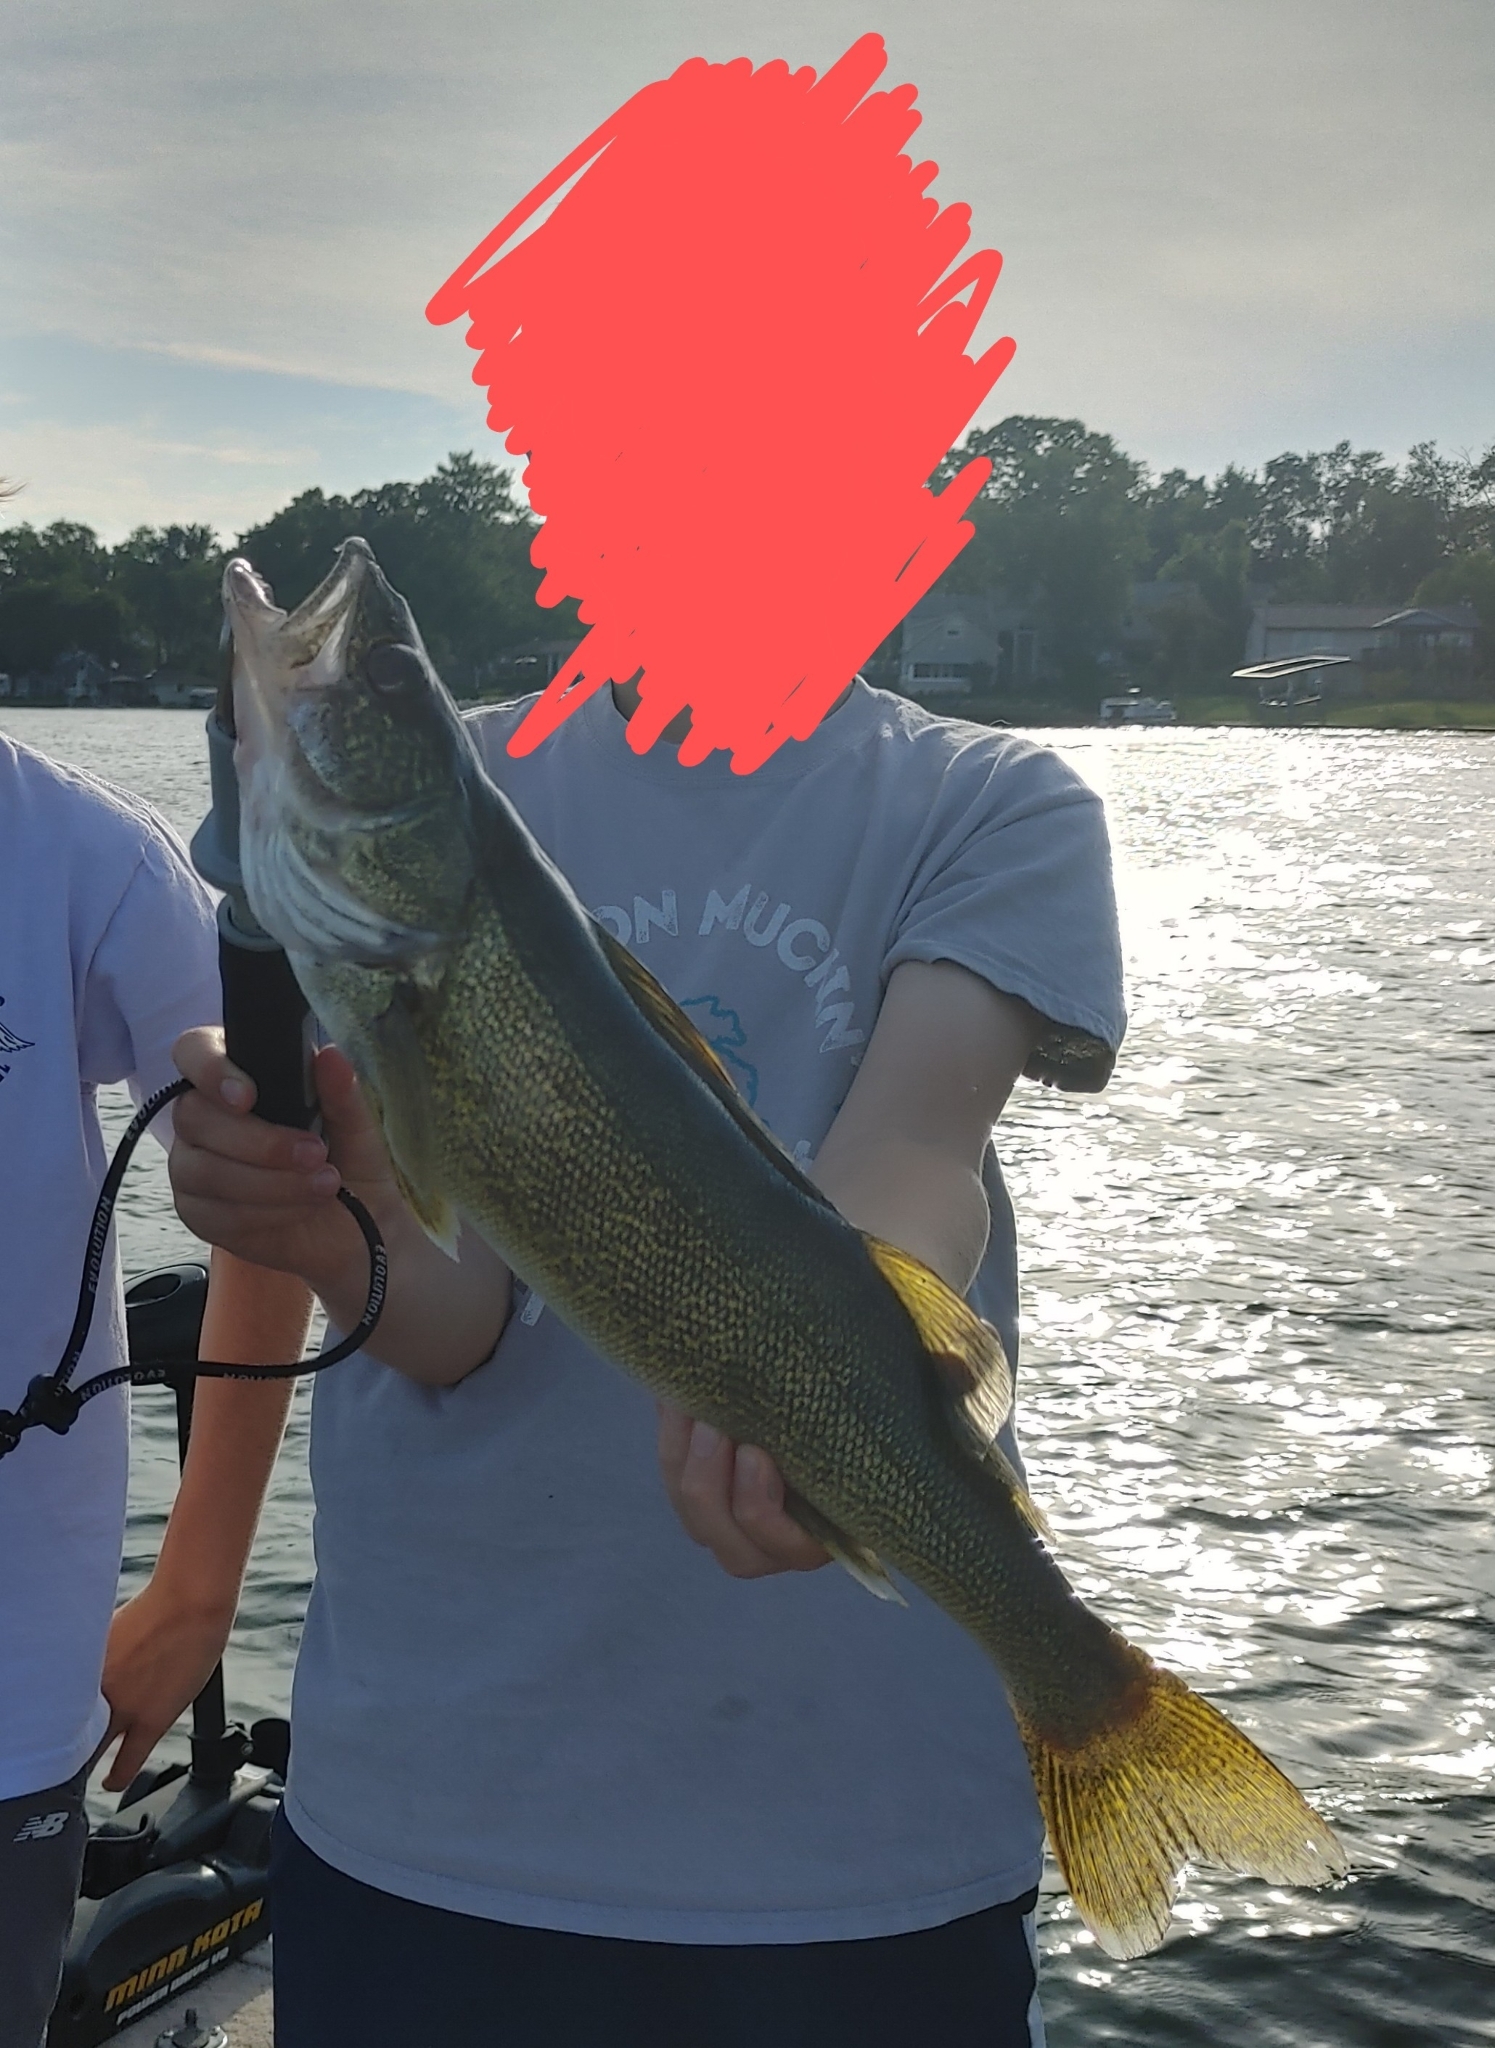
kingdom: Animalia
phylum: Chordata
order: Perciformes
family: Percidae
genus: Sander
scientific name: Sander vitreus
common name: Walleye
